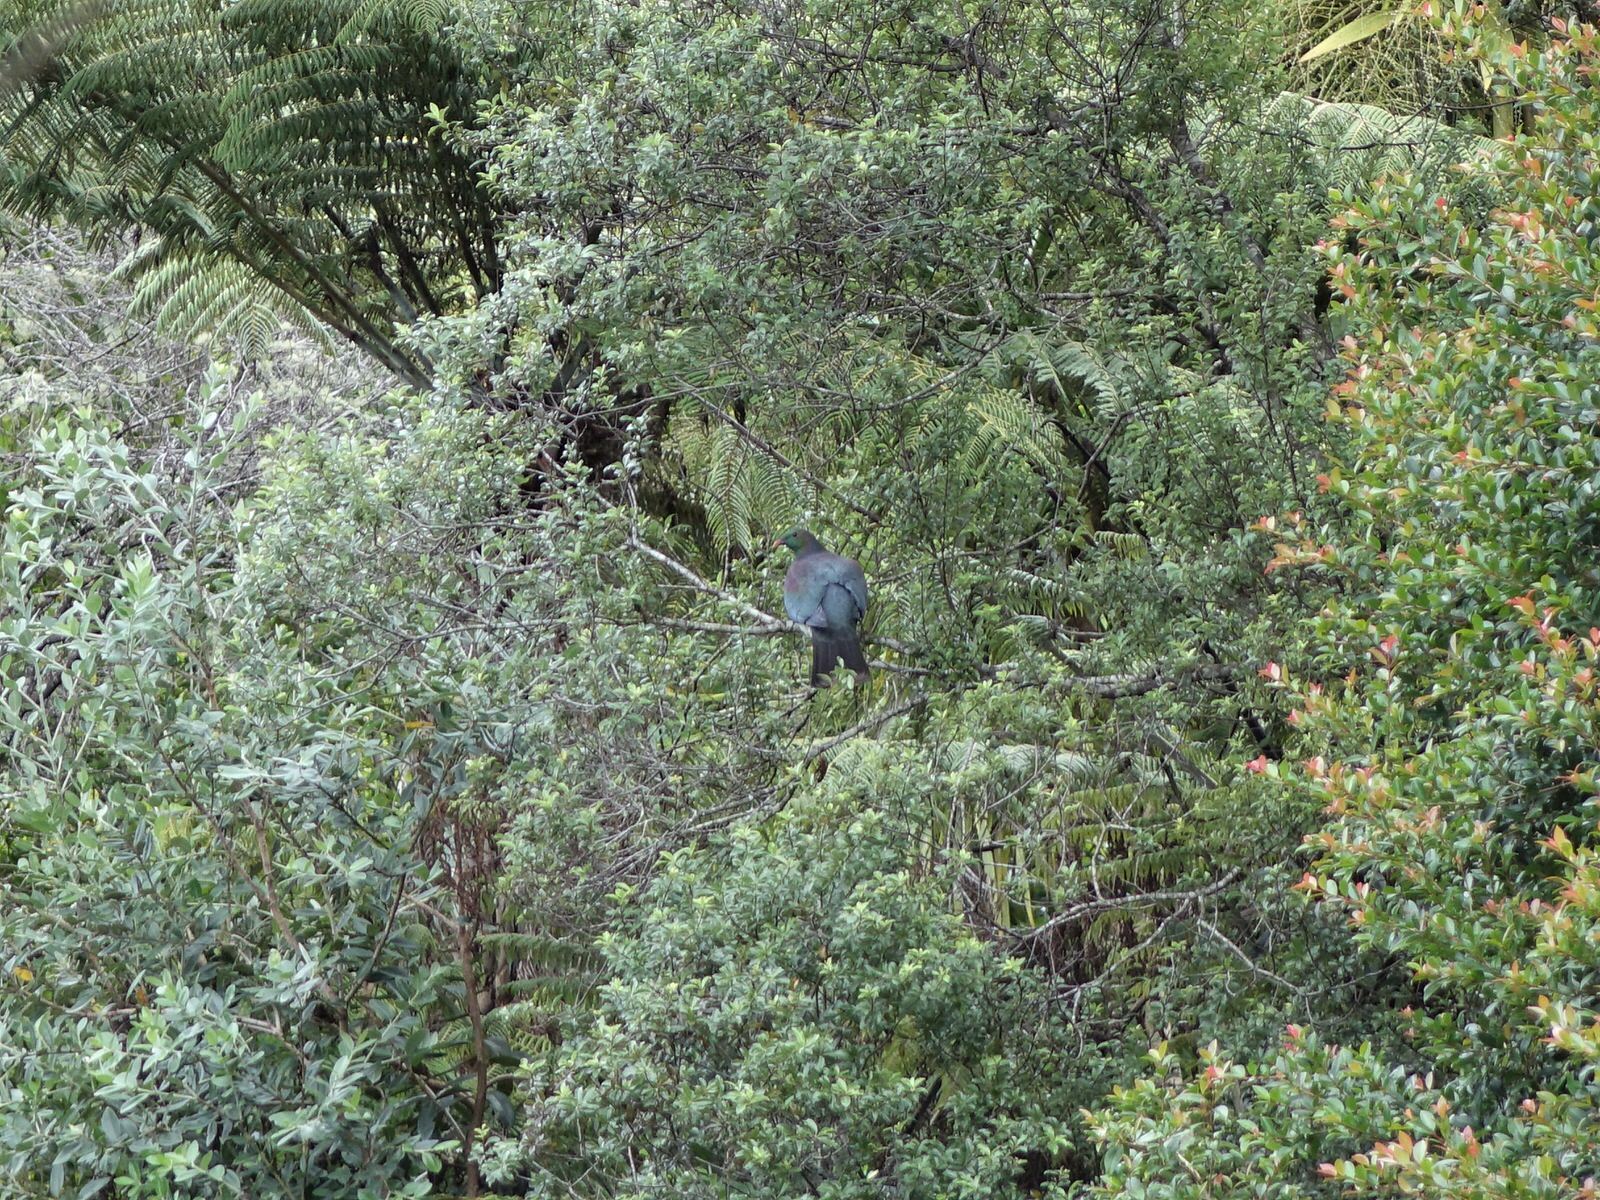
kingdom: Animalia
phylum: Chordata
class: Aves
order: Columbiformes
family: Columbidae
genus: Hemiphaga
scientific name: Hemiphaga novaeseelandiae
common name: New zealand pigeon
